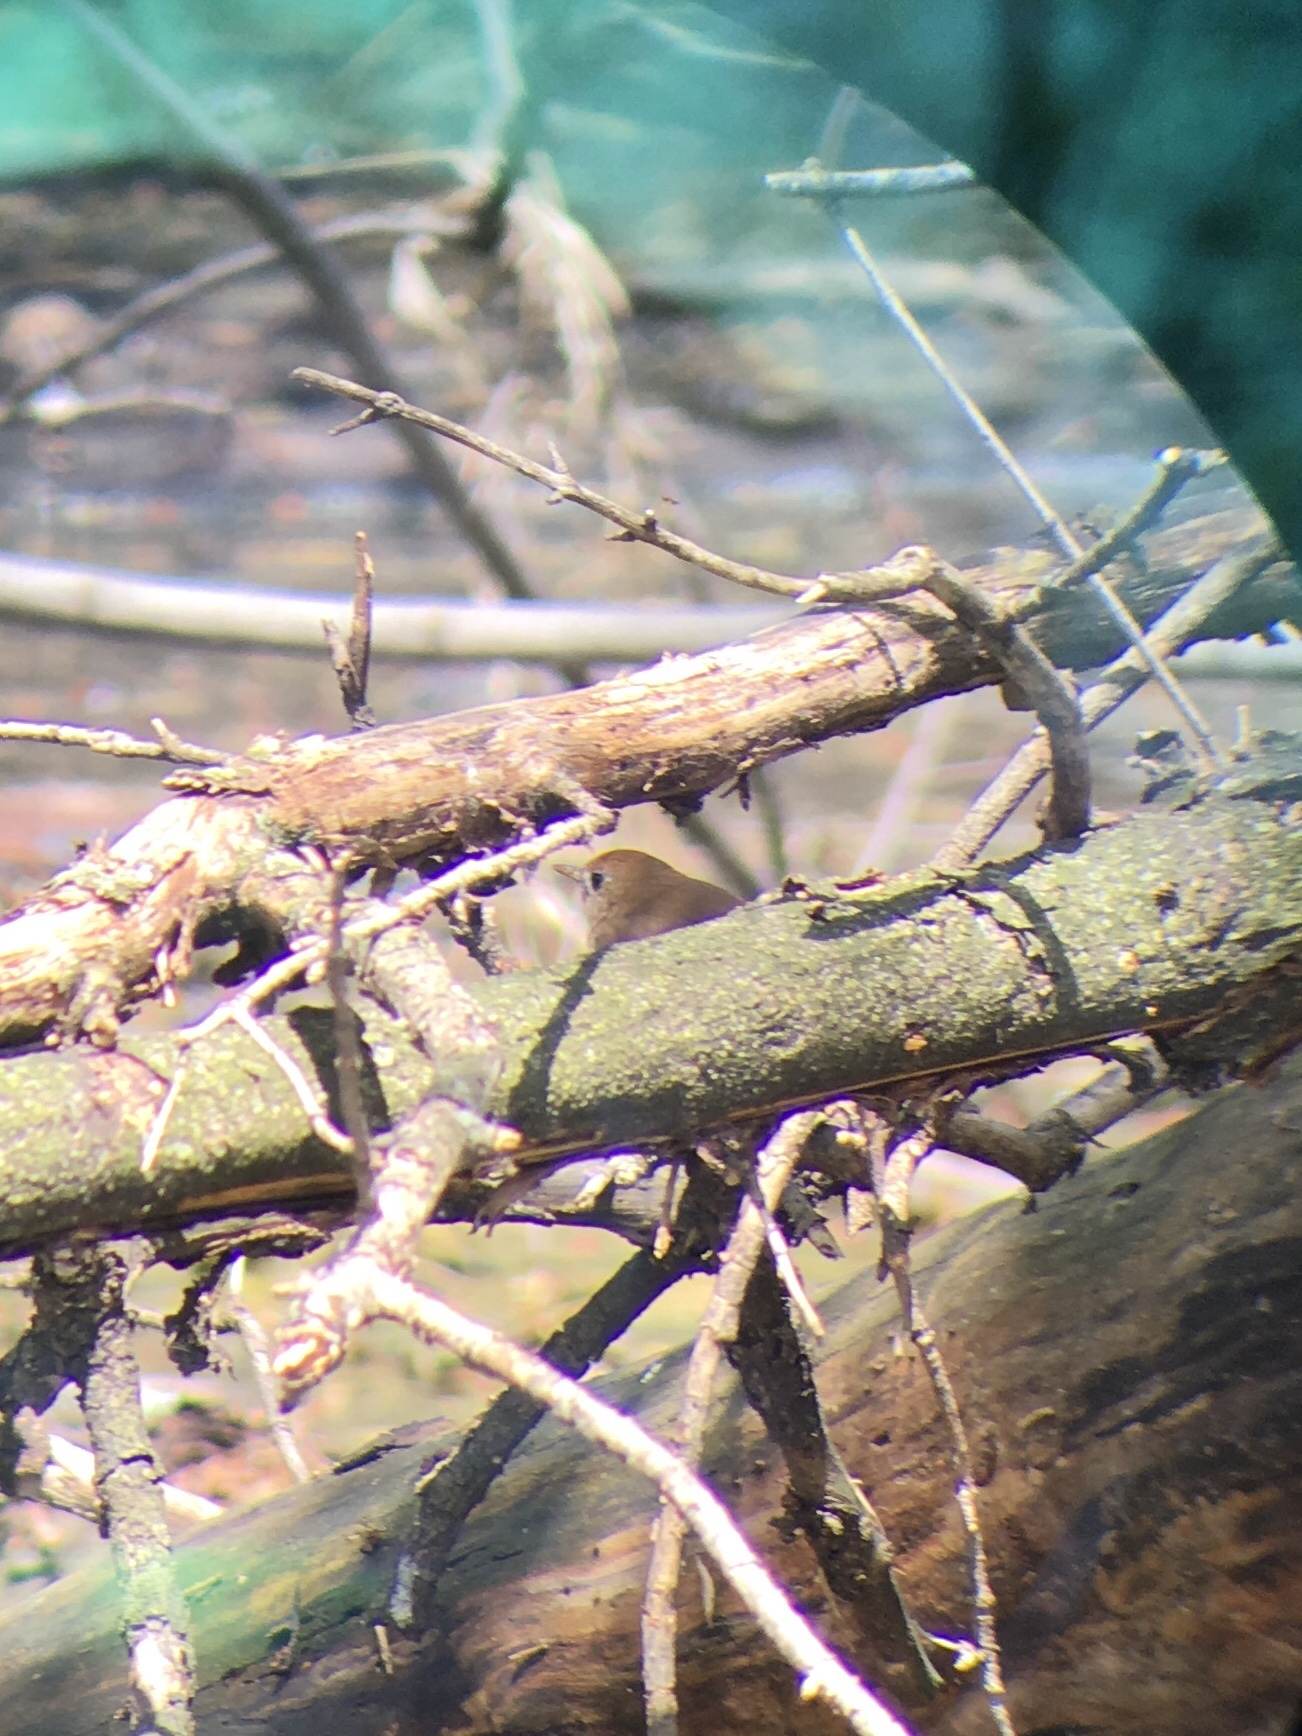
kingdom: Animalia
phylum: Chordata
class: Aves
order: Passeriformes
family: Turdidae
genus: Catharus
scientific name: Catharus fuscescens
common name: Veery
